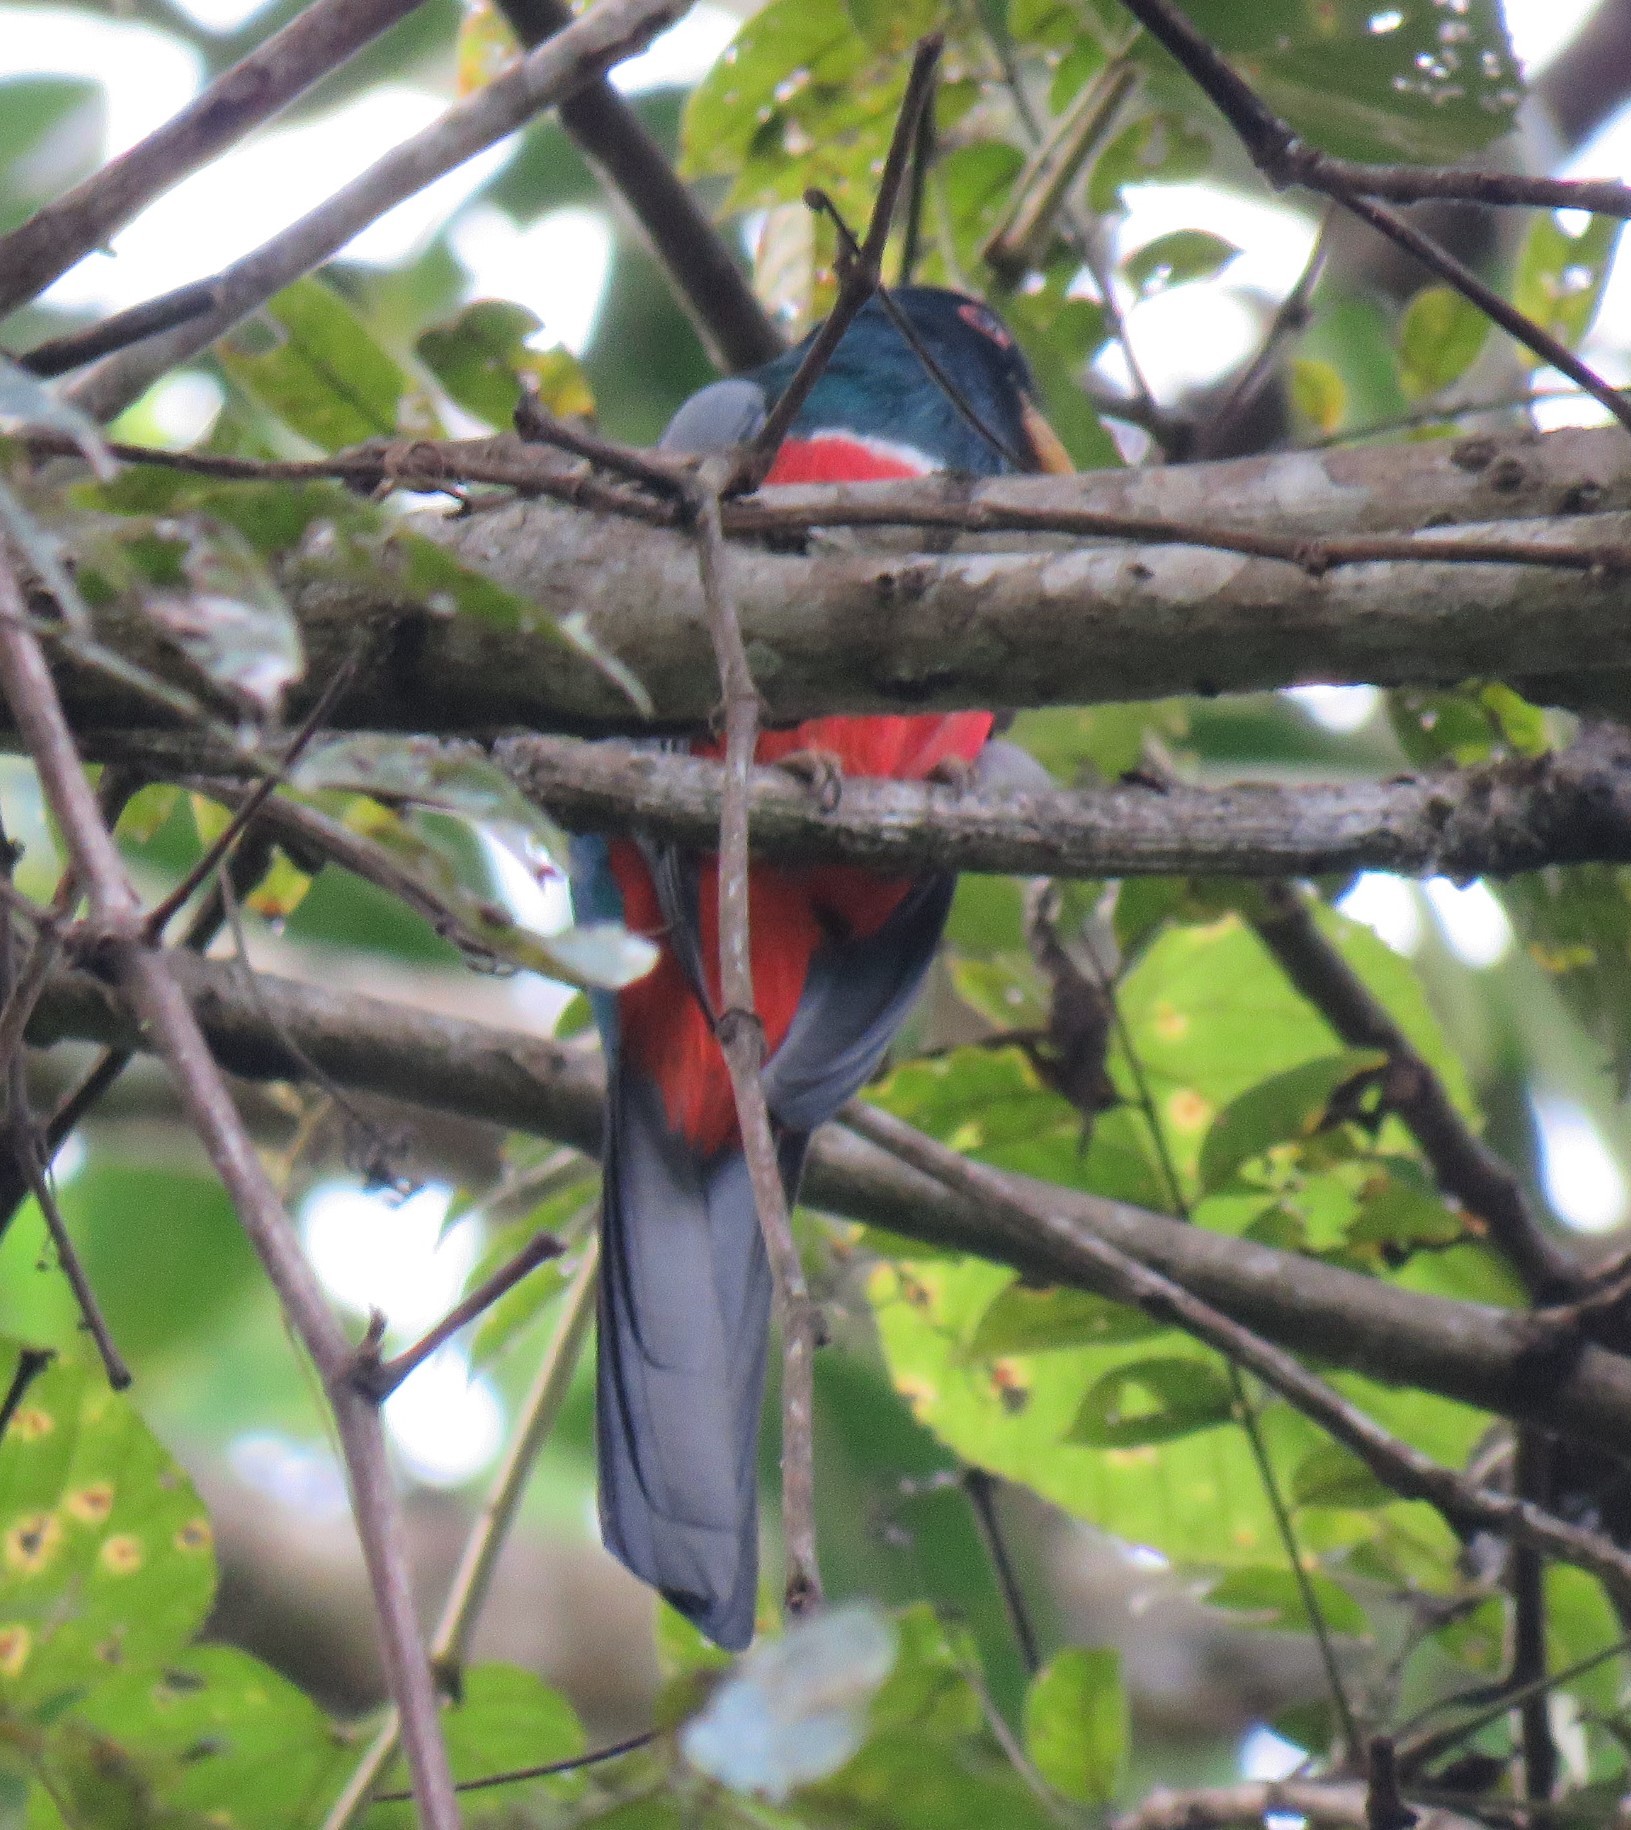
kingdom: Animalia
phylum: Chordata
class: Aves
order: Trogoniformes
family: Trogonidae
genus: Trogon
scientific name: Trogon melanurus
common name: Black-tailed trogon
